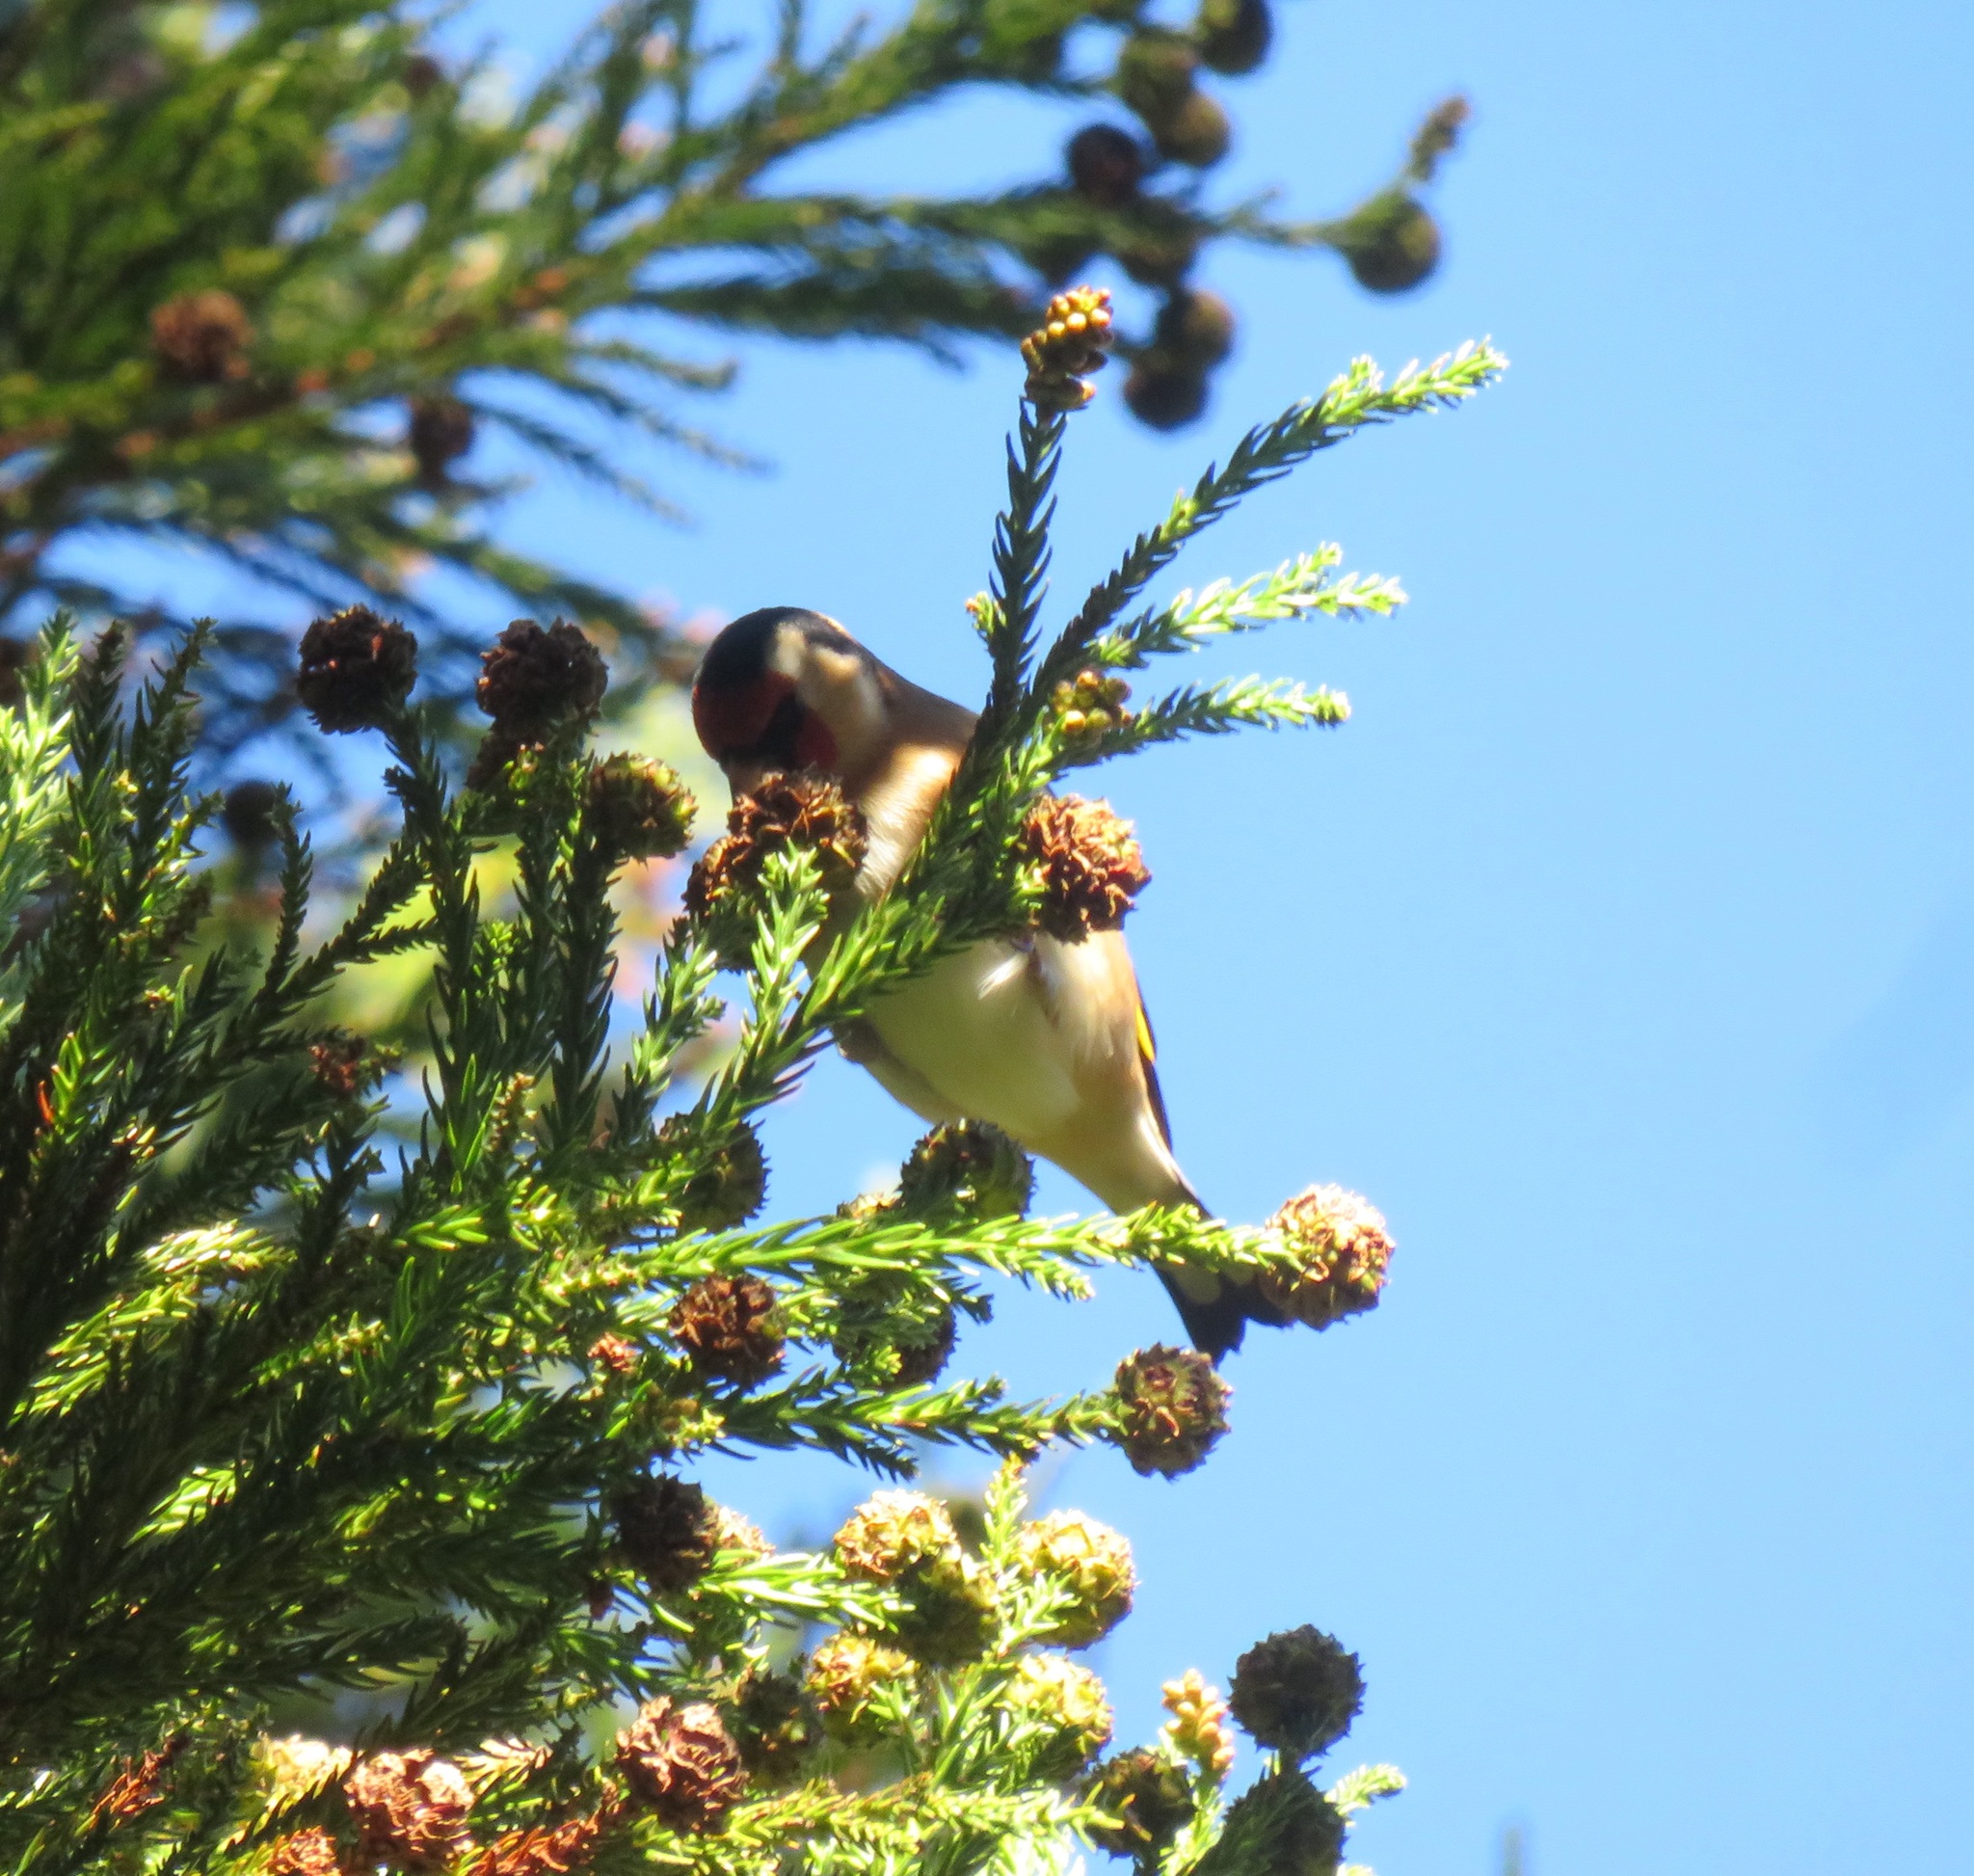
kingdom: Animalia
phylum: Chordata
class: Aves
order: Passeriformes
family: Fringillidae
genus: Carduelis
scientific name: Carduelis carduelis
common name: European goldfinch
